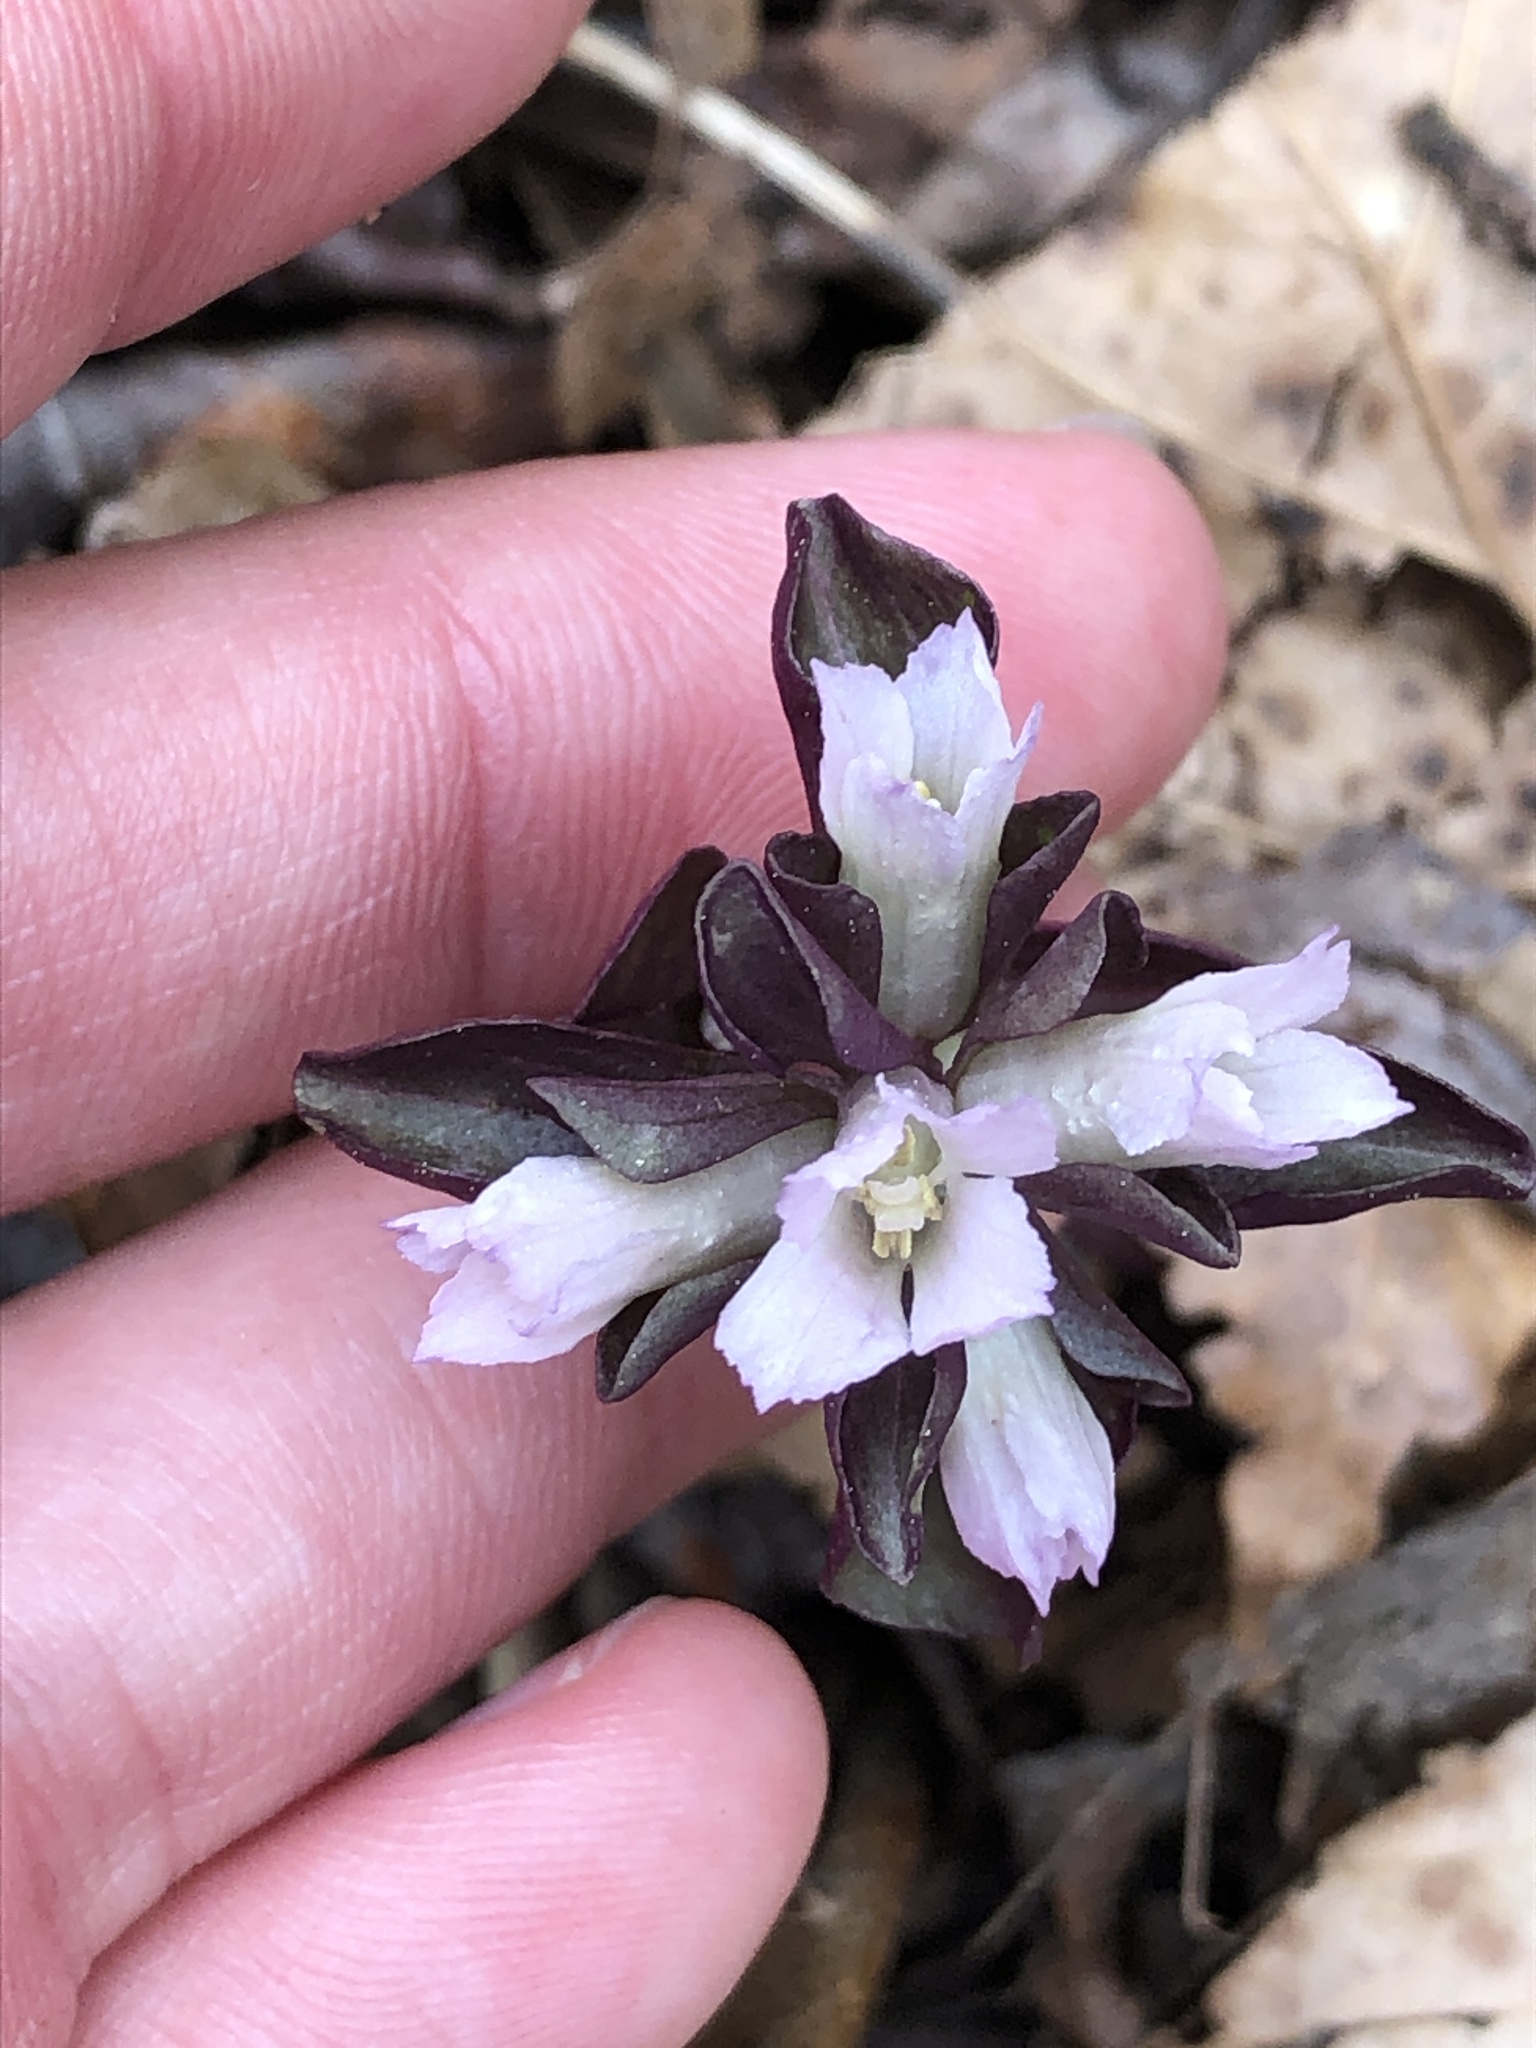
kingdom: Plantae
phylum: Tracheophyta
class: Magnoliopsida
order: Gentianales
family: Gentianaceae
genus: Obolaria
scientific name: Obolaria virginica
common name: Pennywort
